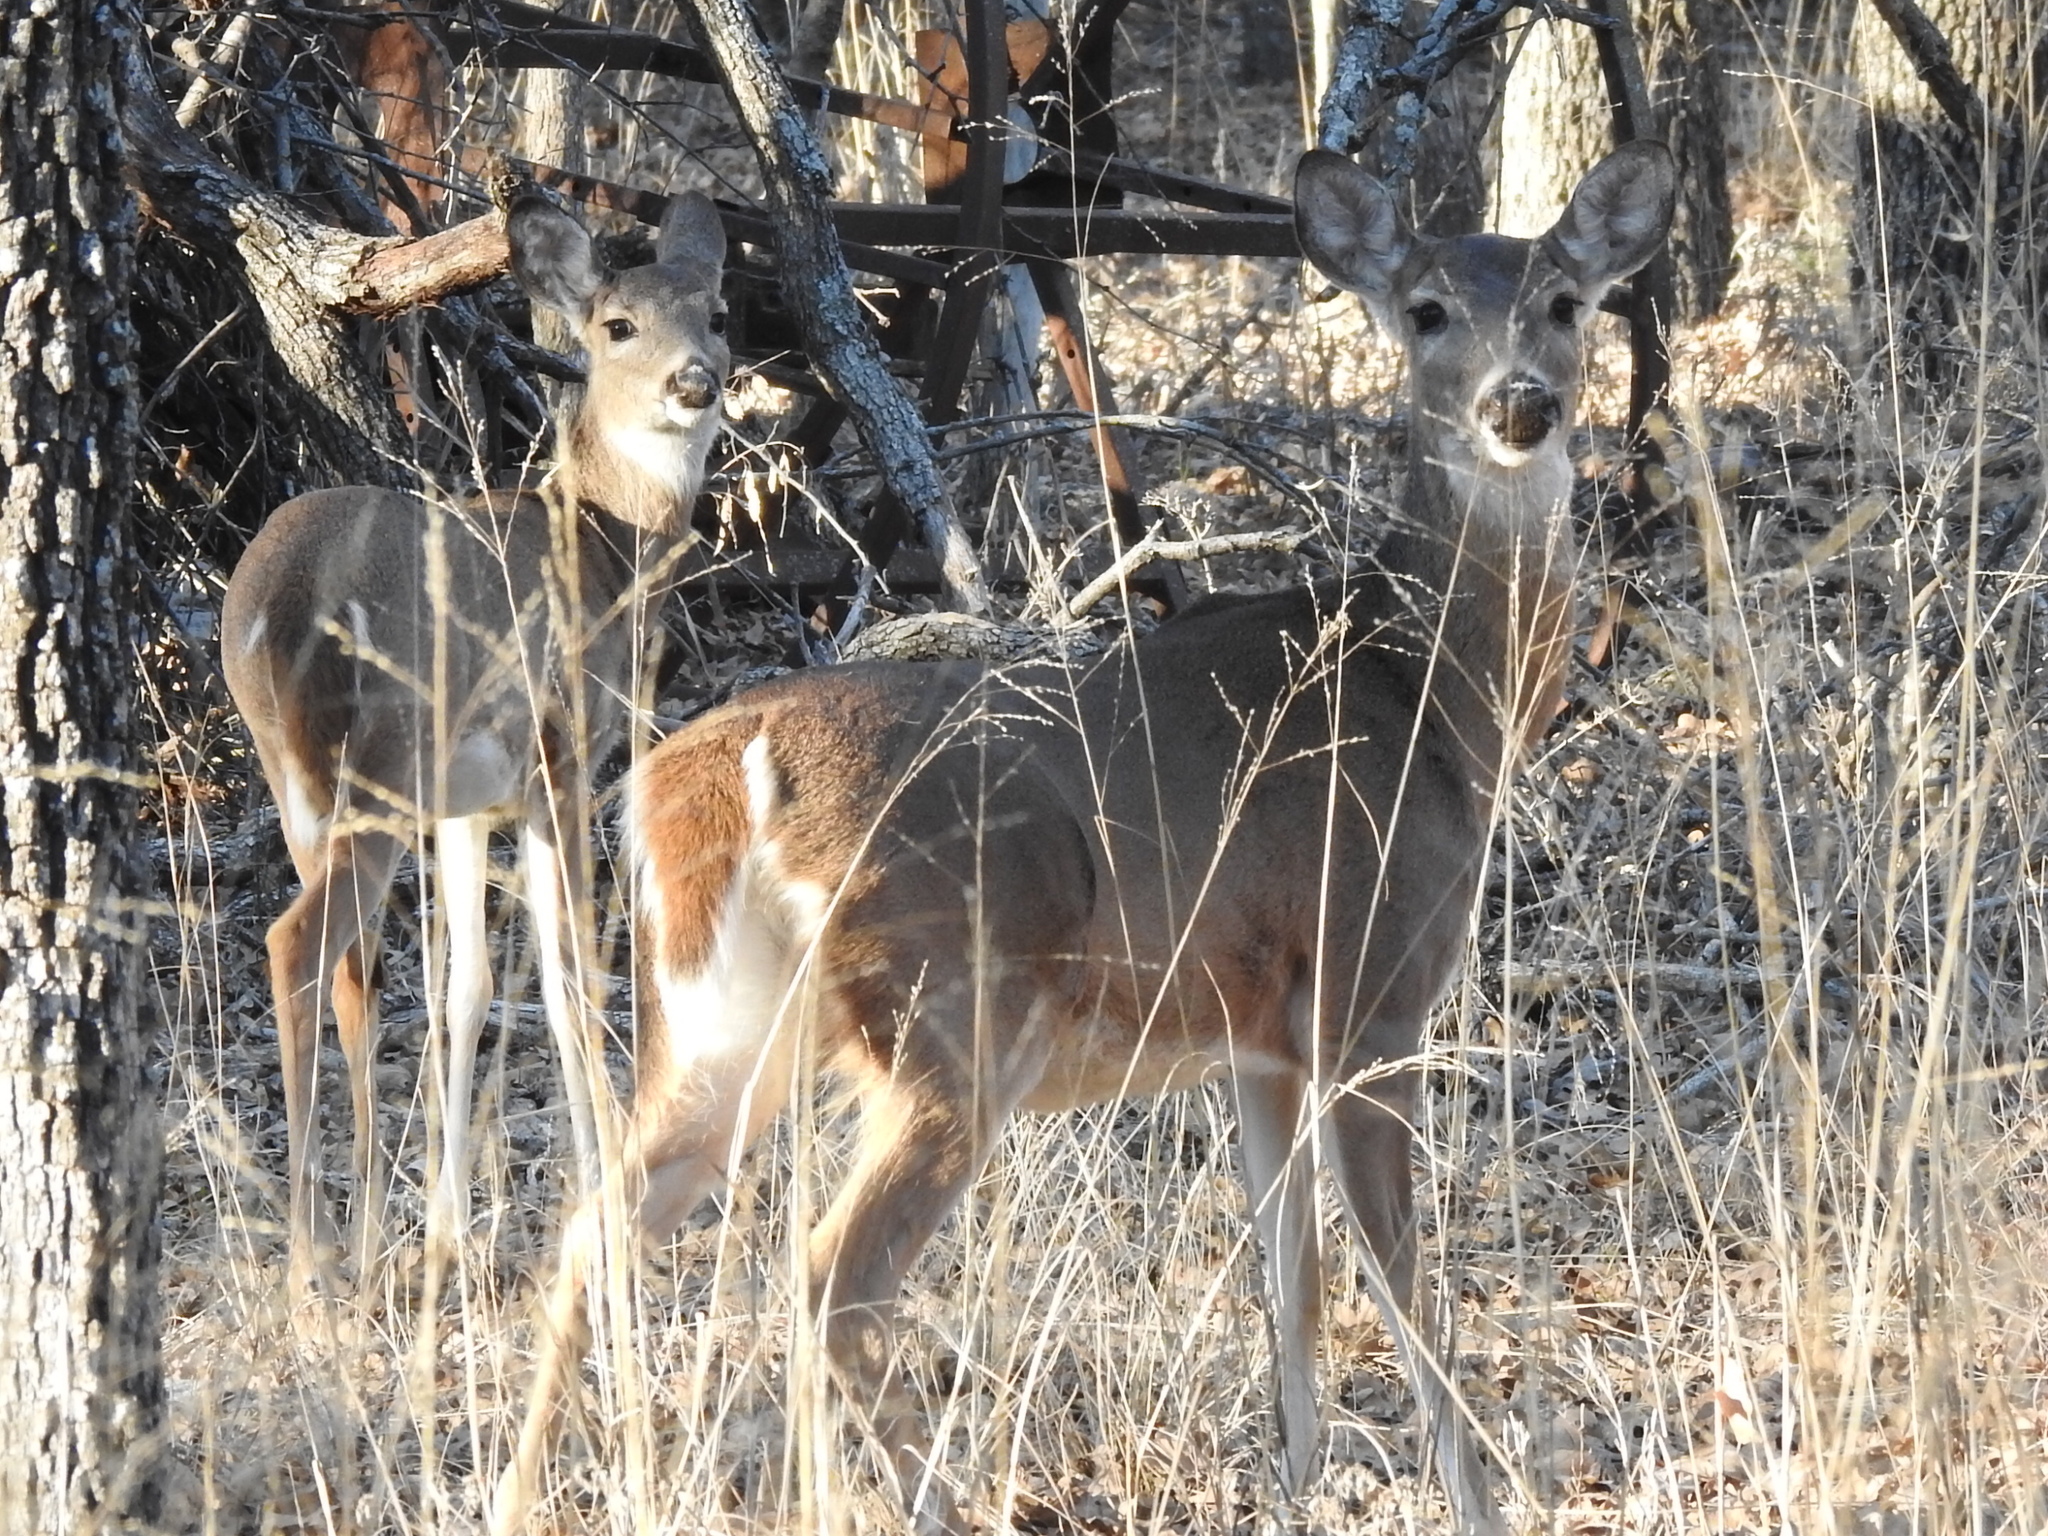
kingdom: Animalia
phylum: Chordata
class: Mammalia
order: Artiodactyla
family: Cervidae
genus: Odocoileus
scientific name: Odocoileus virginianus
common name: White-tailed deer
